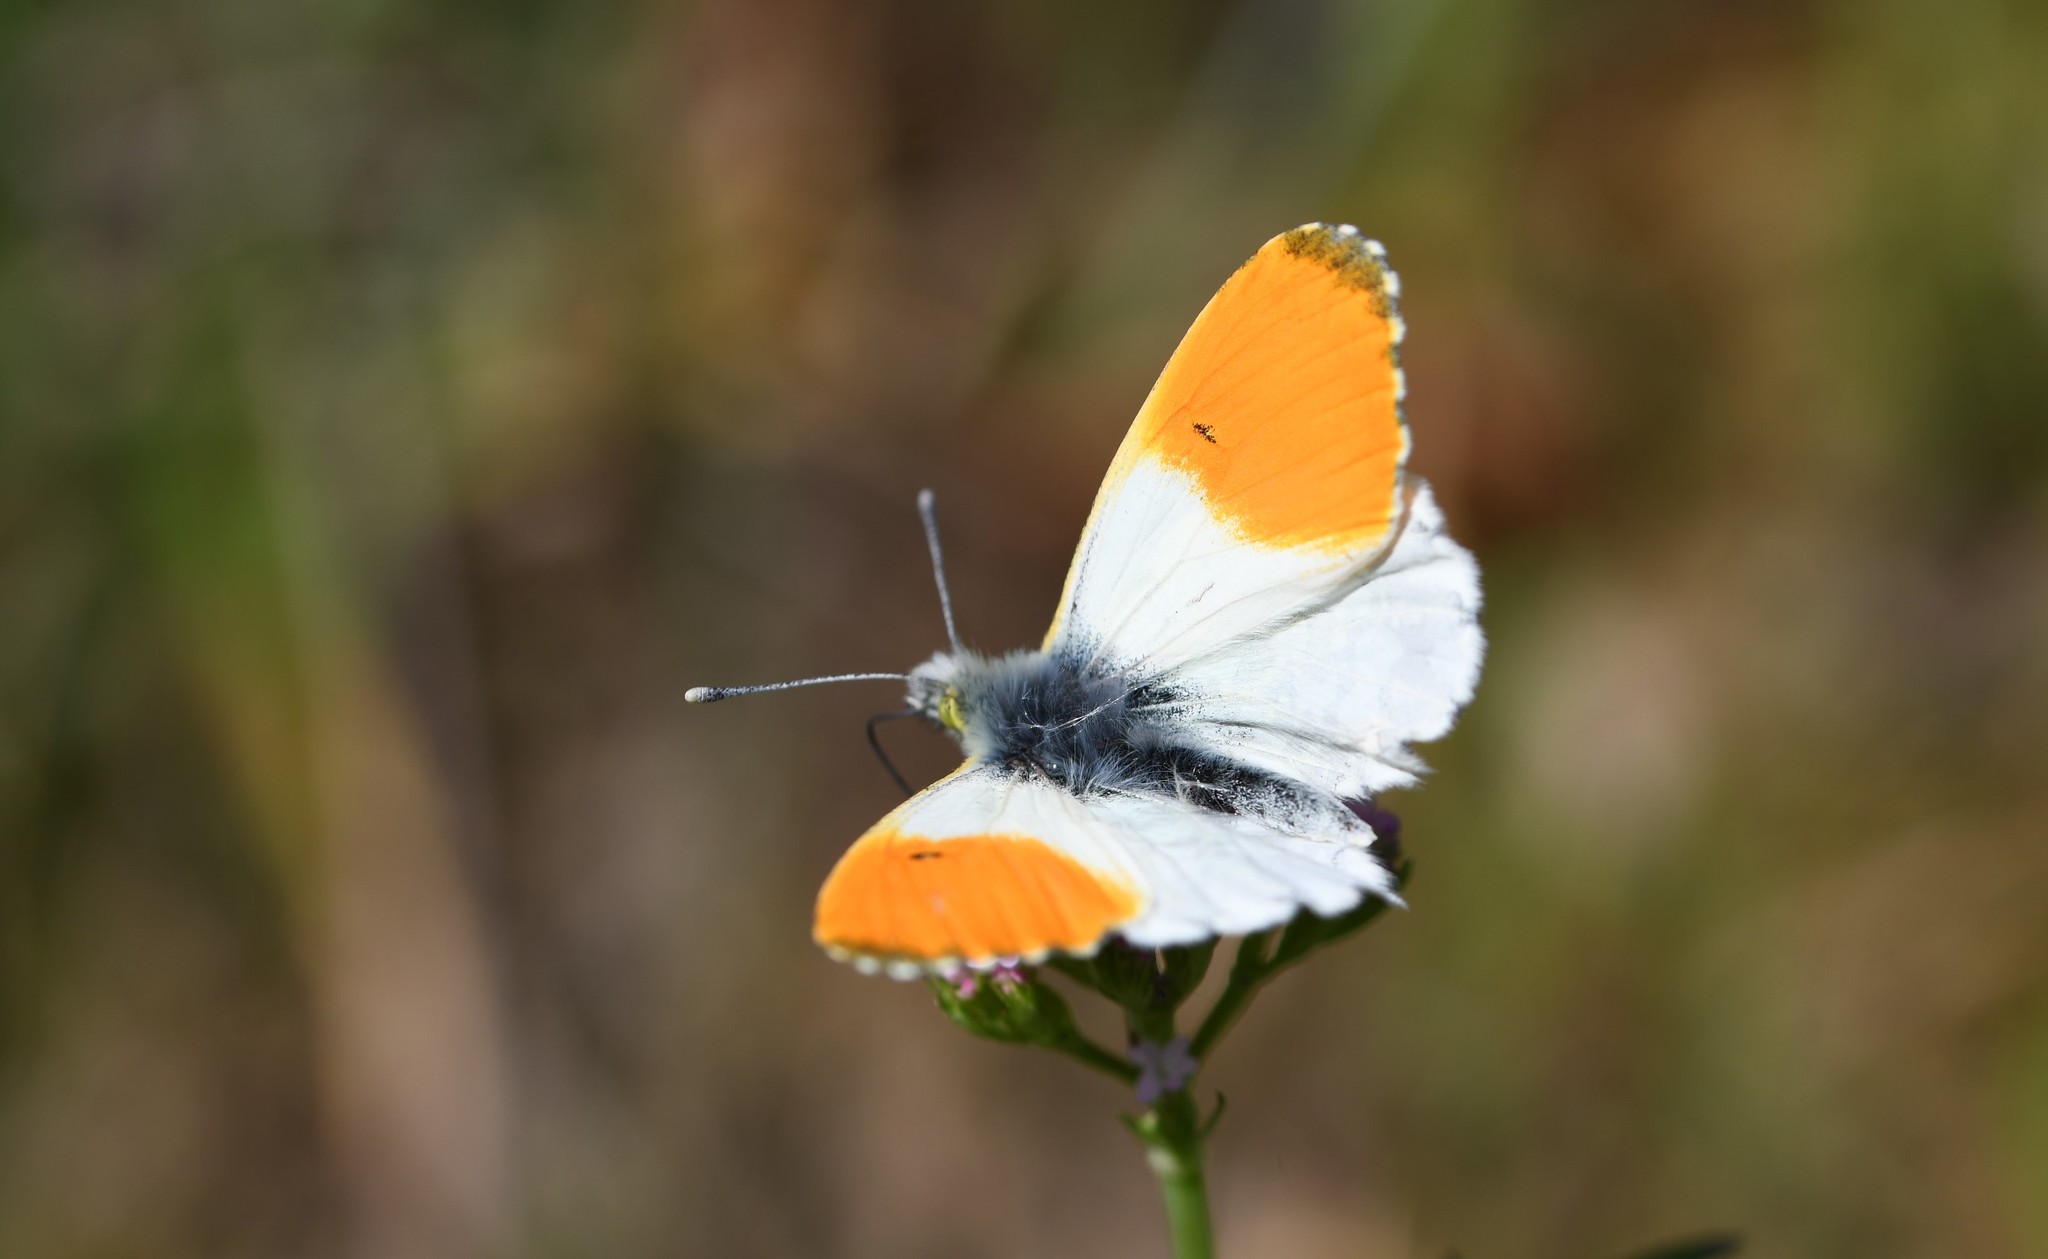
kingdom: Animalia
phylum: Arthropoda
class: Insecta
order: Lepidoptera
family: Pieridae
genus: Anthocharis
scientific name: Anthocharis cardamines
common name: Orange-tip
